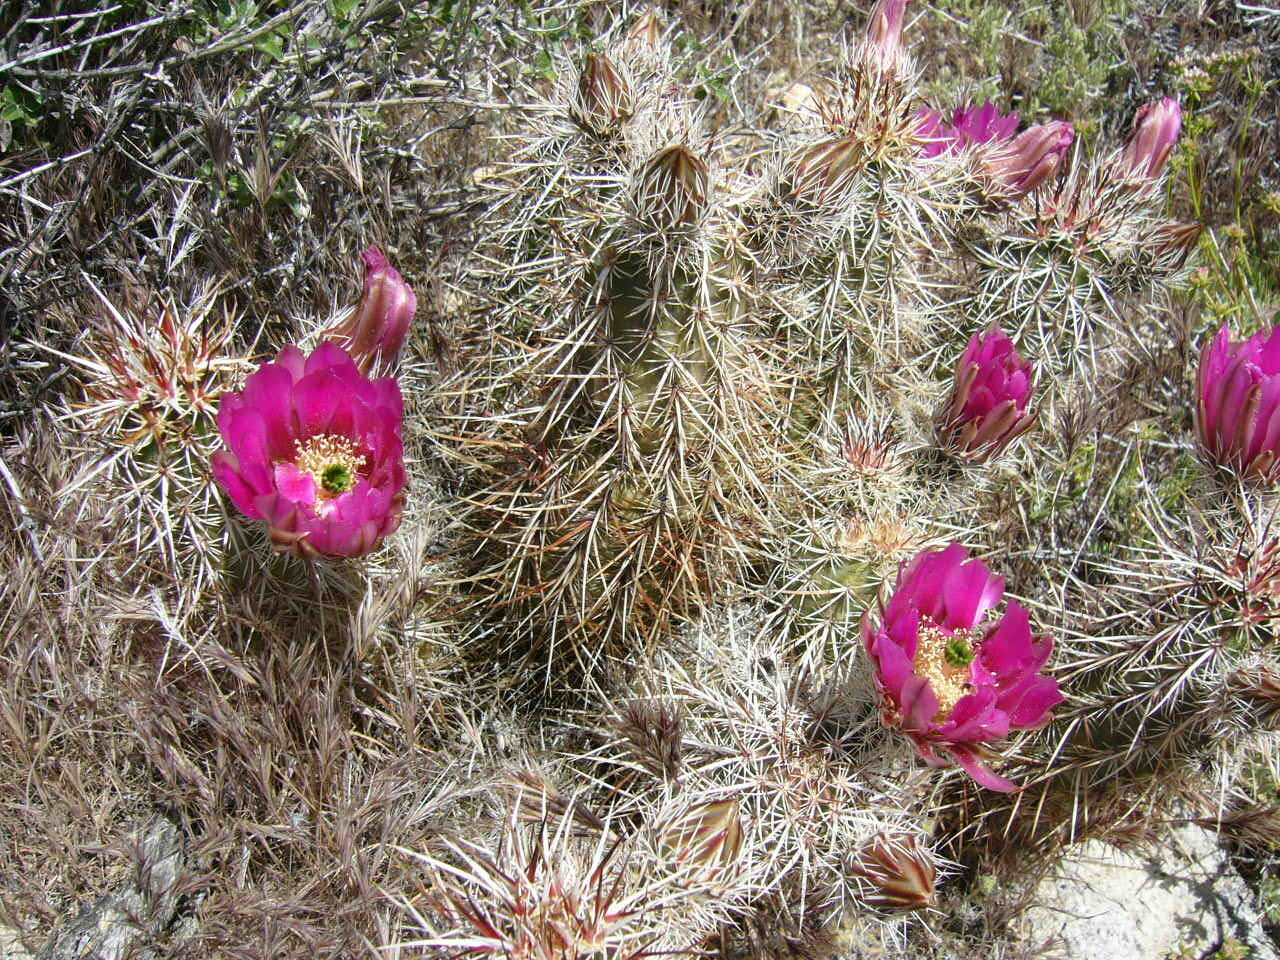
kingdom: Plantae
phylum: Tracheophyta
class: Magnoliopsida
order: Caryophyllales
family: Cactaceae
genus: Echinocereus
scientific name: Echinocereus engelmannii
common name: Engelmann's hedgehog cactus
